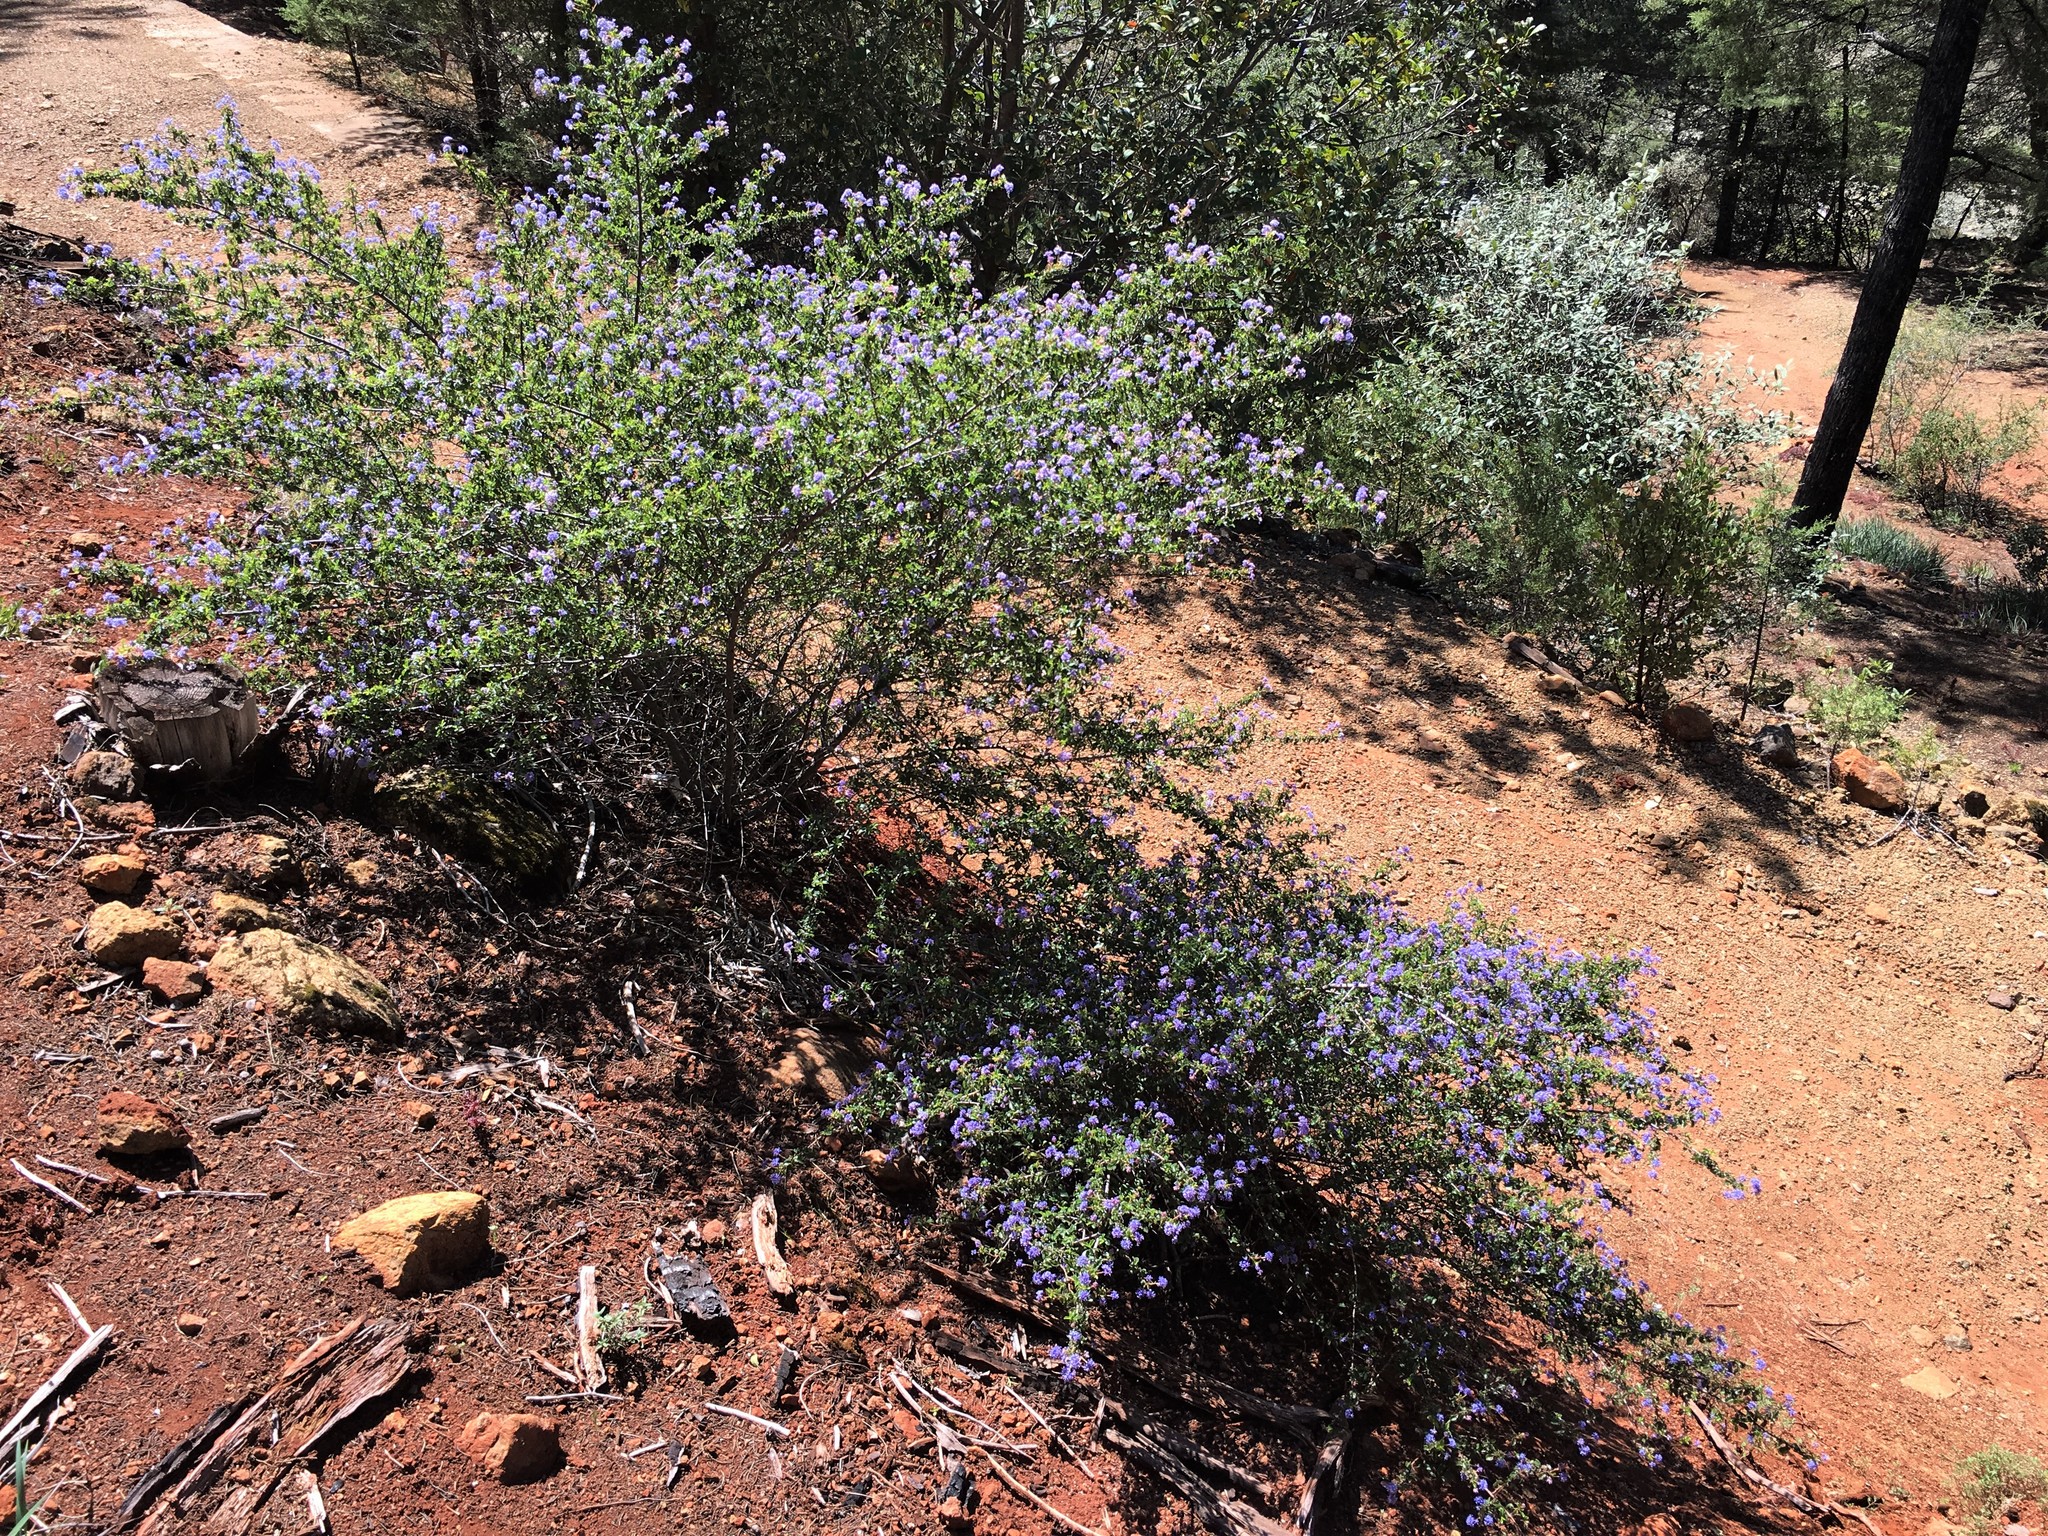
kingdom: Plantae
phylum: Tracheophyta
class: Magnoliopsida
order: Rosales
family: Rhamnaceae
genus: Ceanothus
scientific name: Ceanothus foliosus
